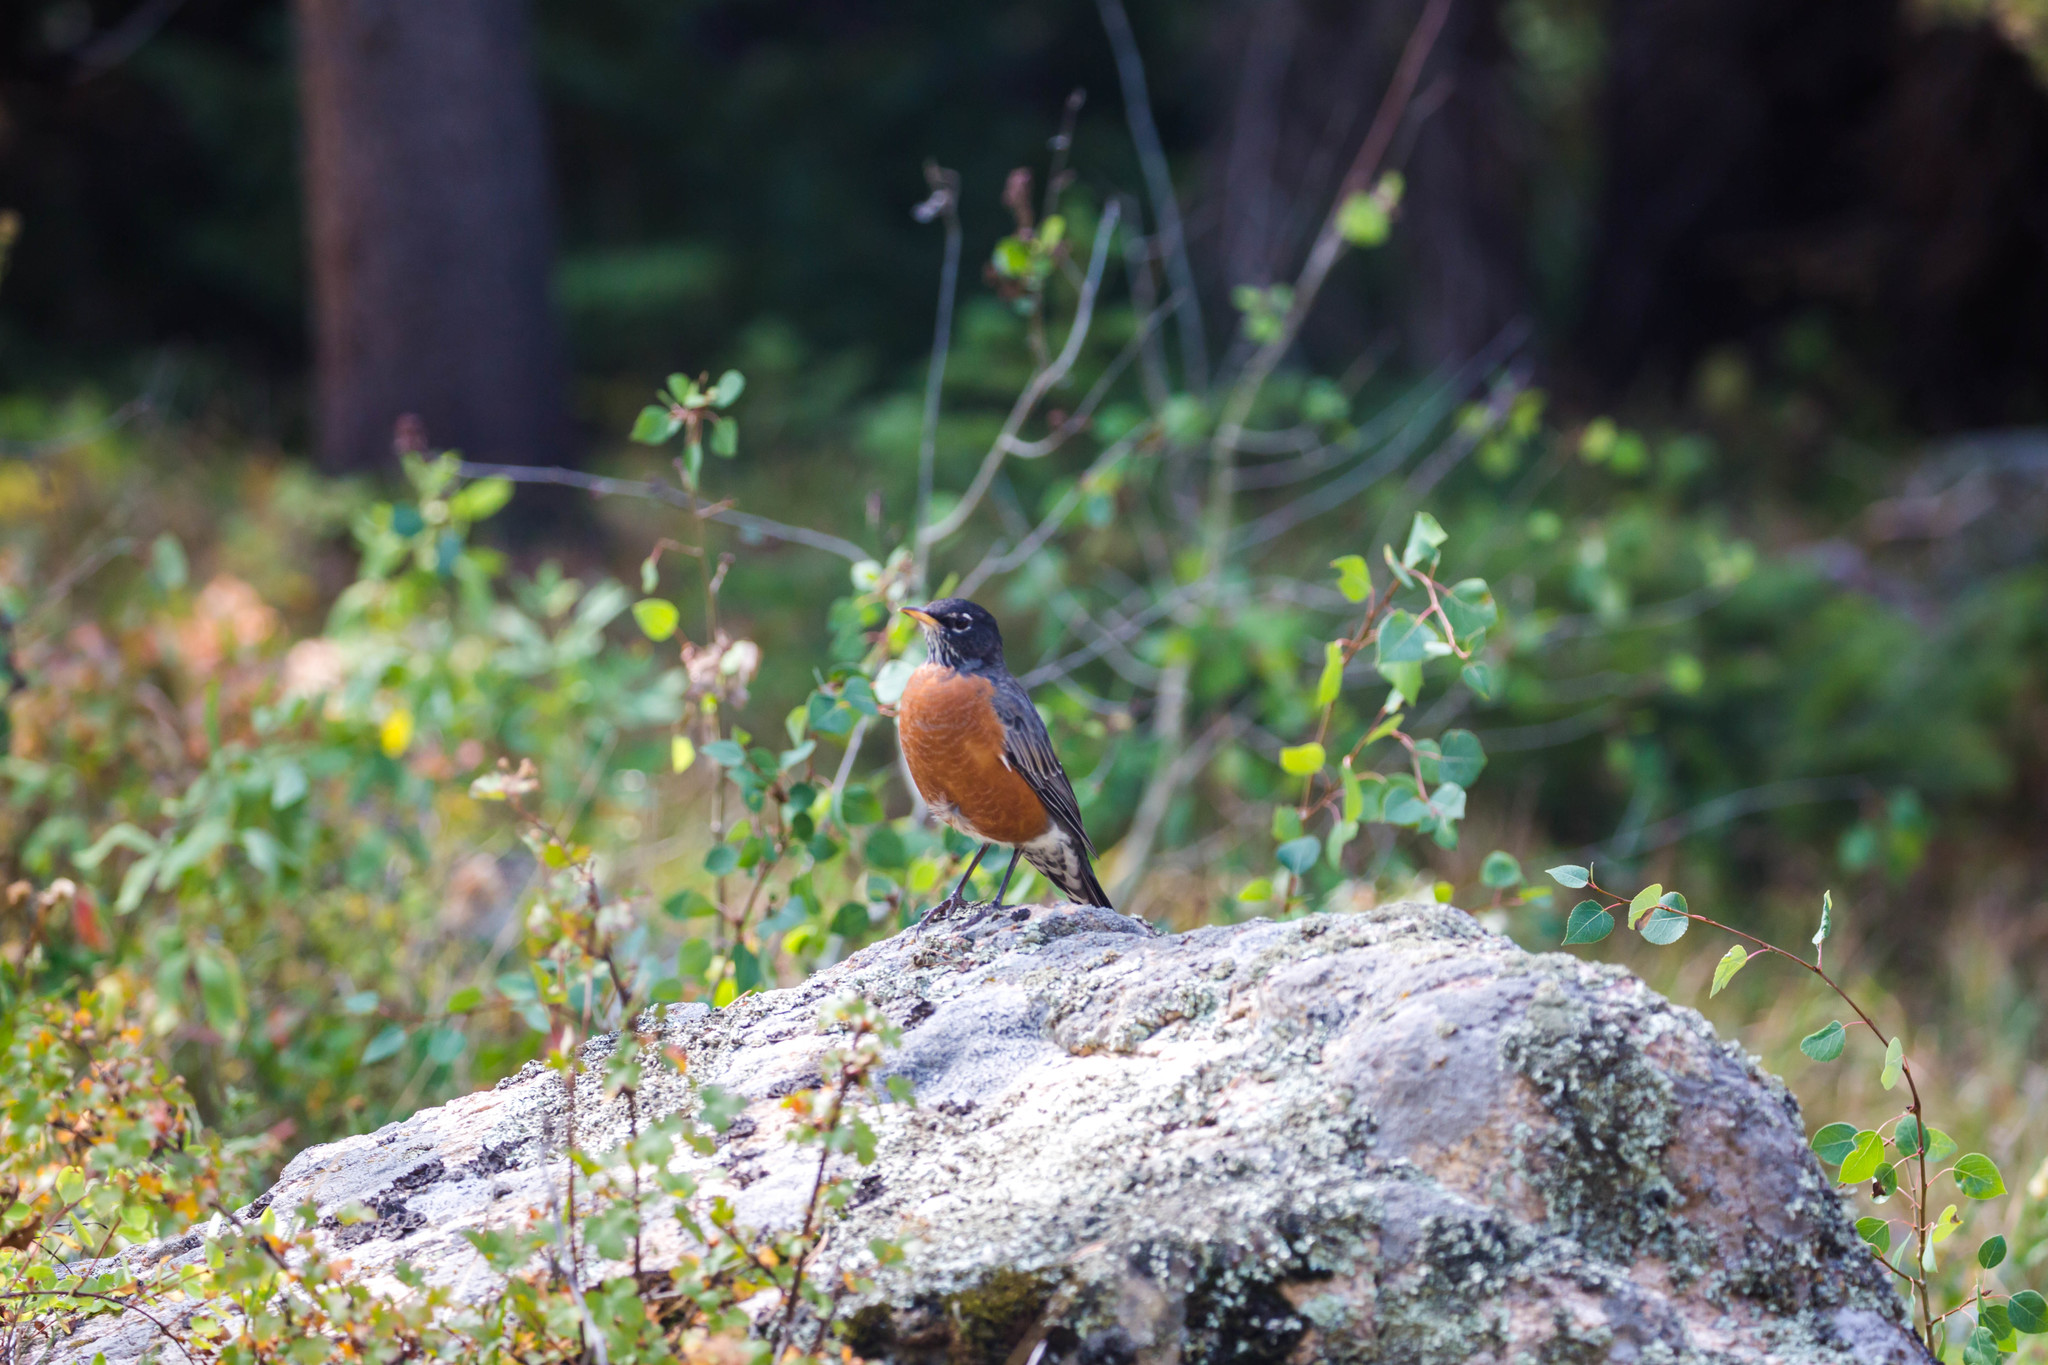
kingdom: Animalia
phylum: Chordata
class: Aves
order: Passeriformes
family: Turdidae
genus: Turdus
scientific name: Turdus migratorius
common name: American robin
